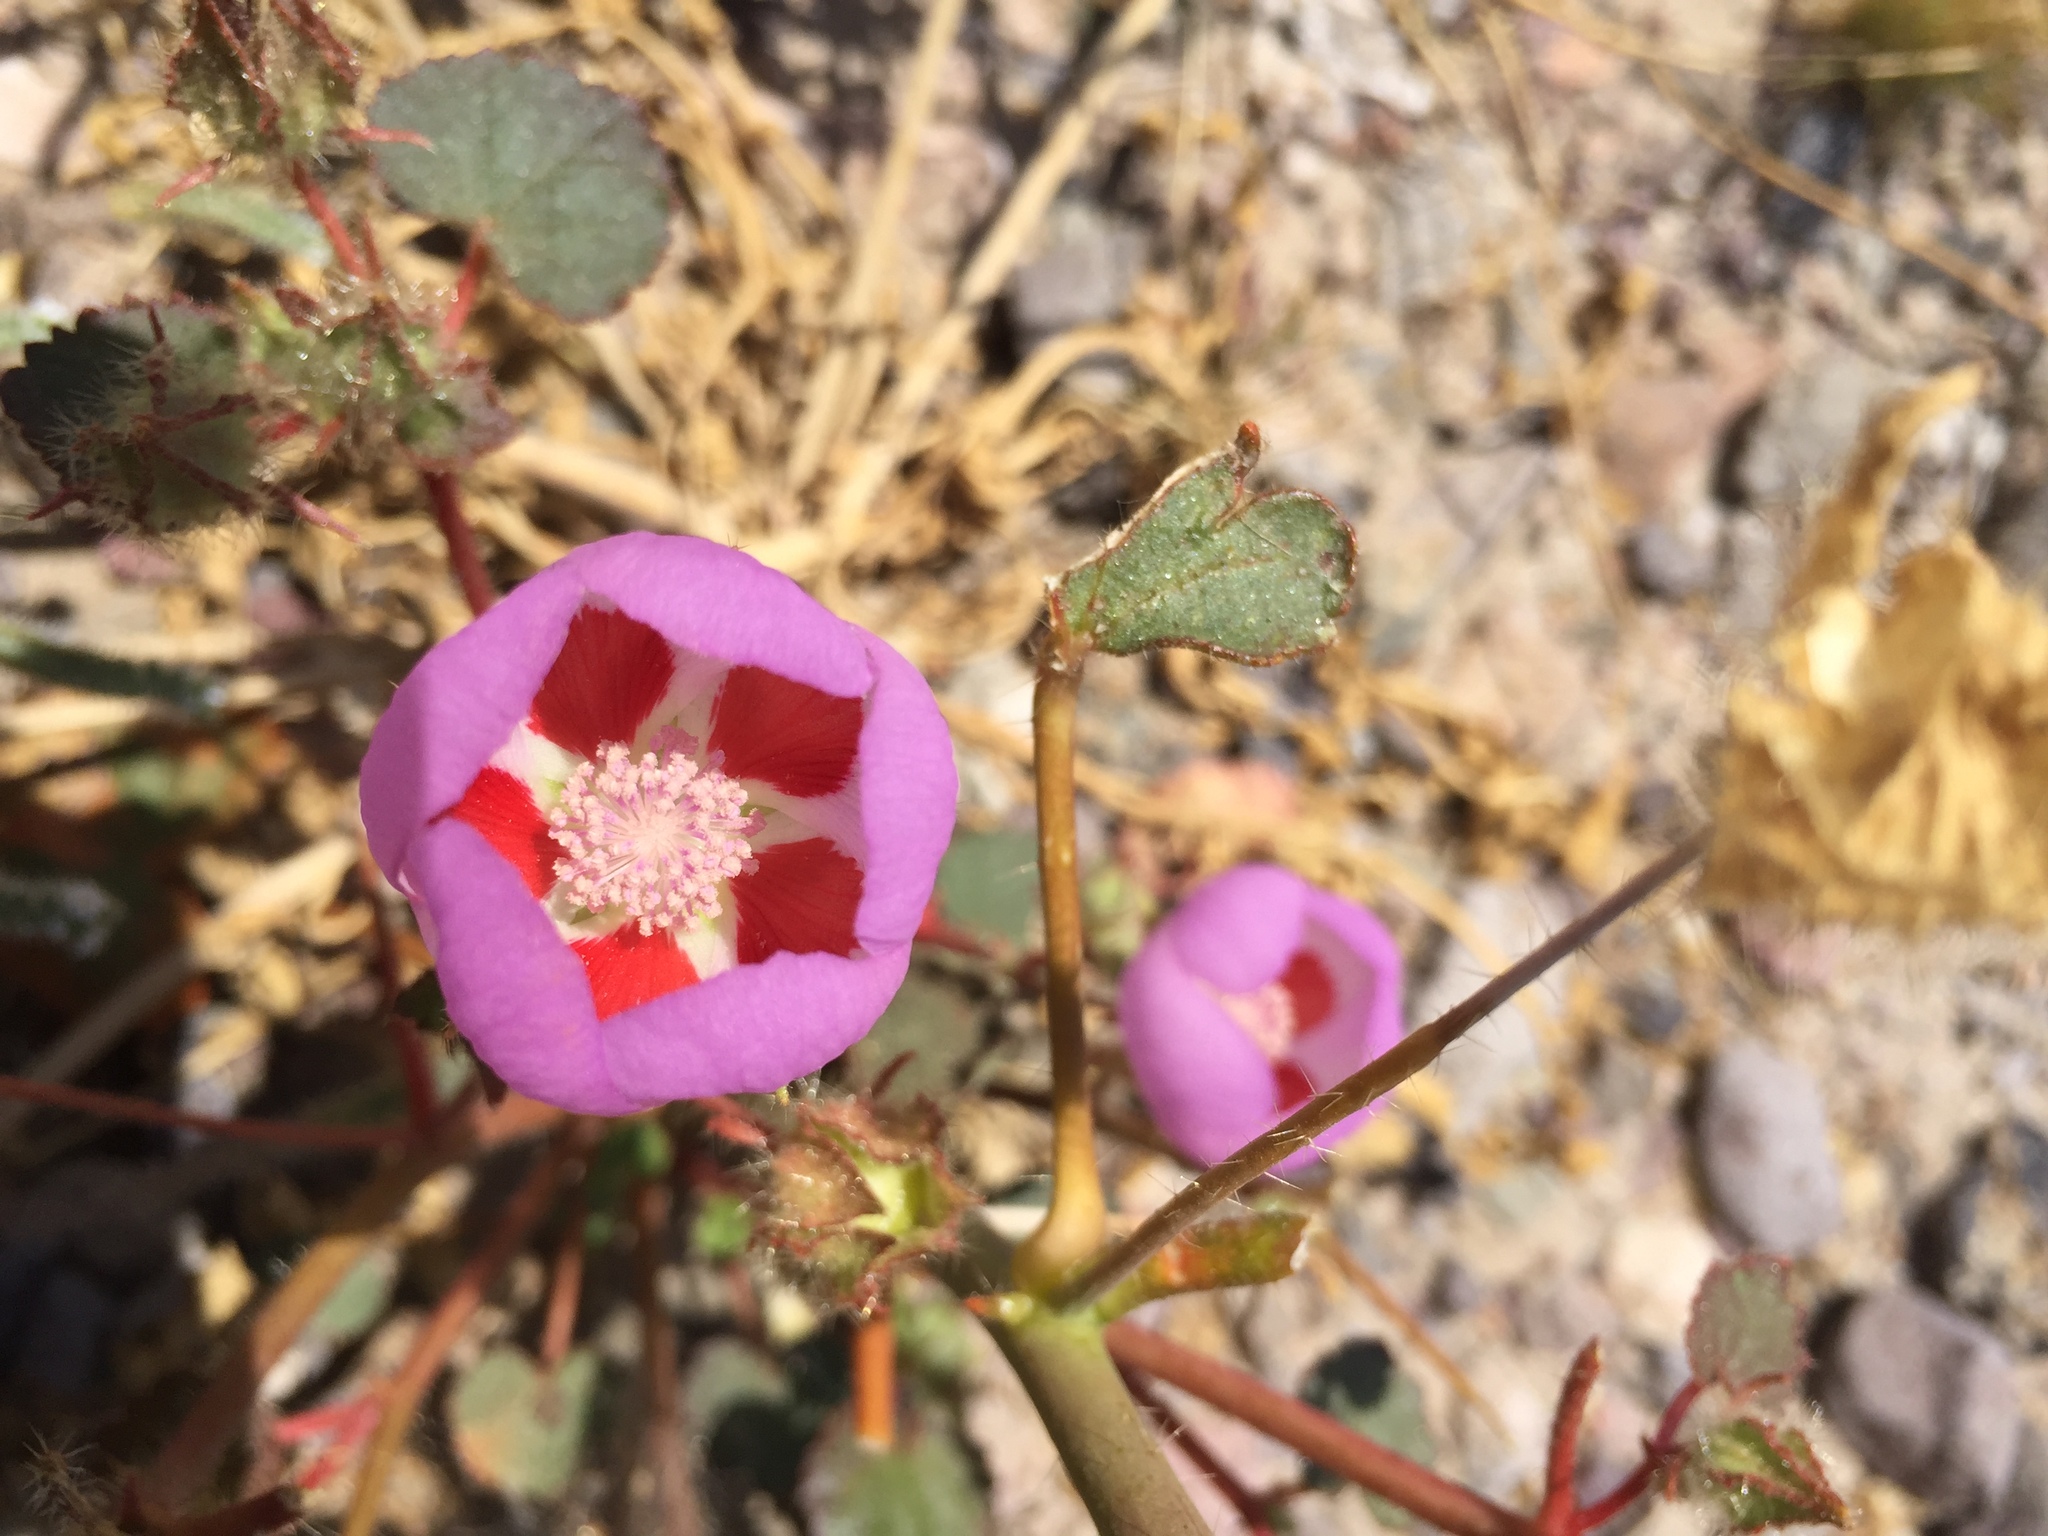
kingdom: Plantae
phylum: Tracheophyta
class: Magnoliopsida
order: Malvales
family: Malvaceae
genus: Eremalche
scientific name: Eremalche rotundifolia
